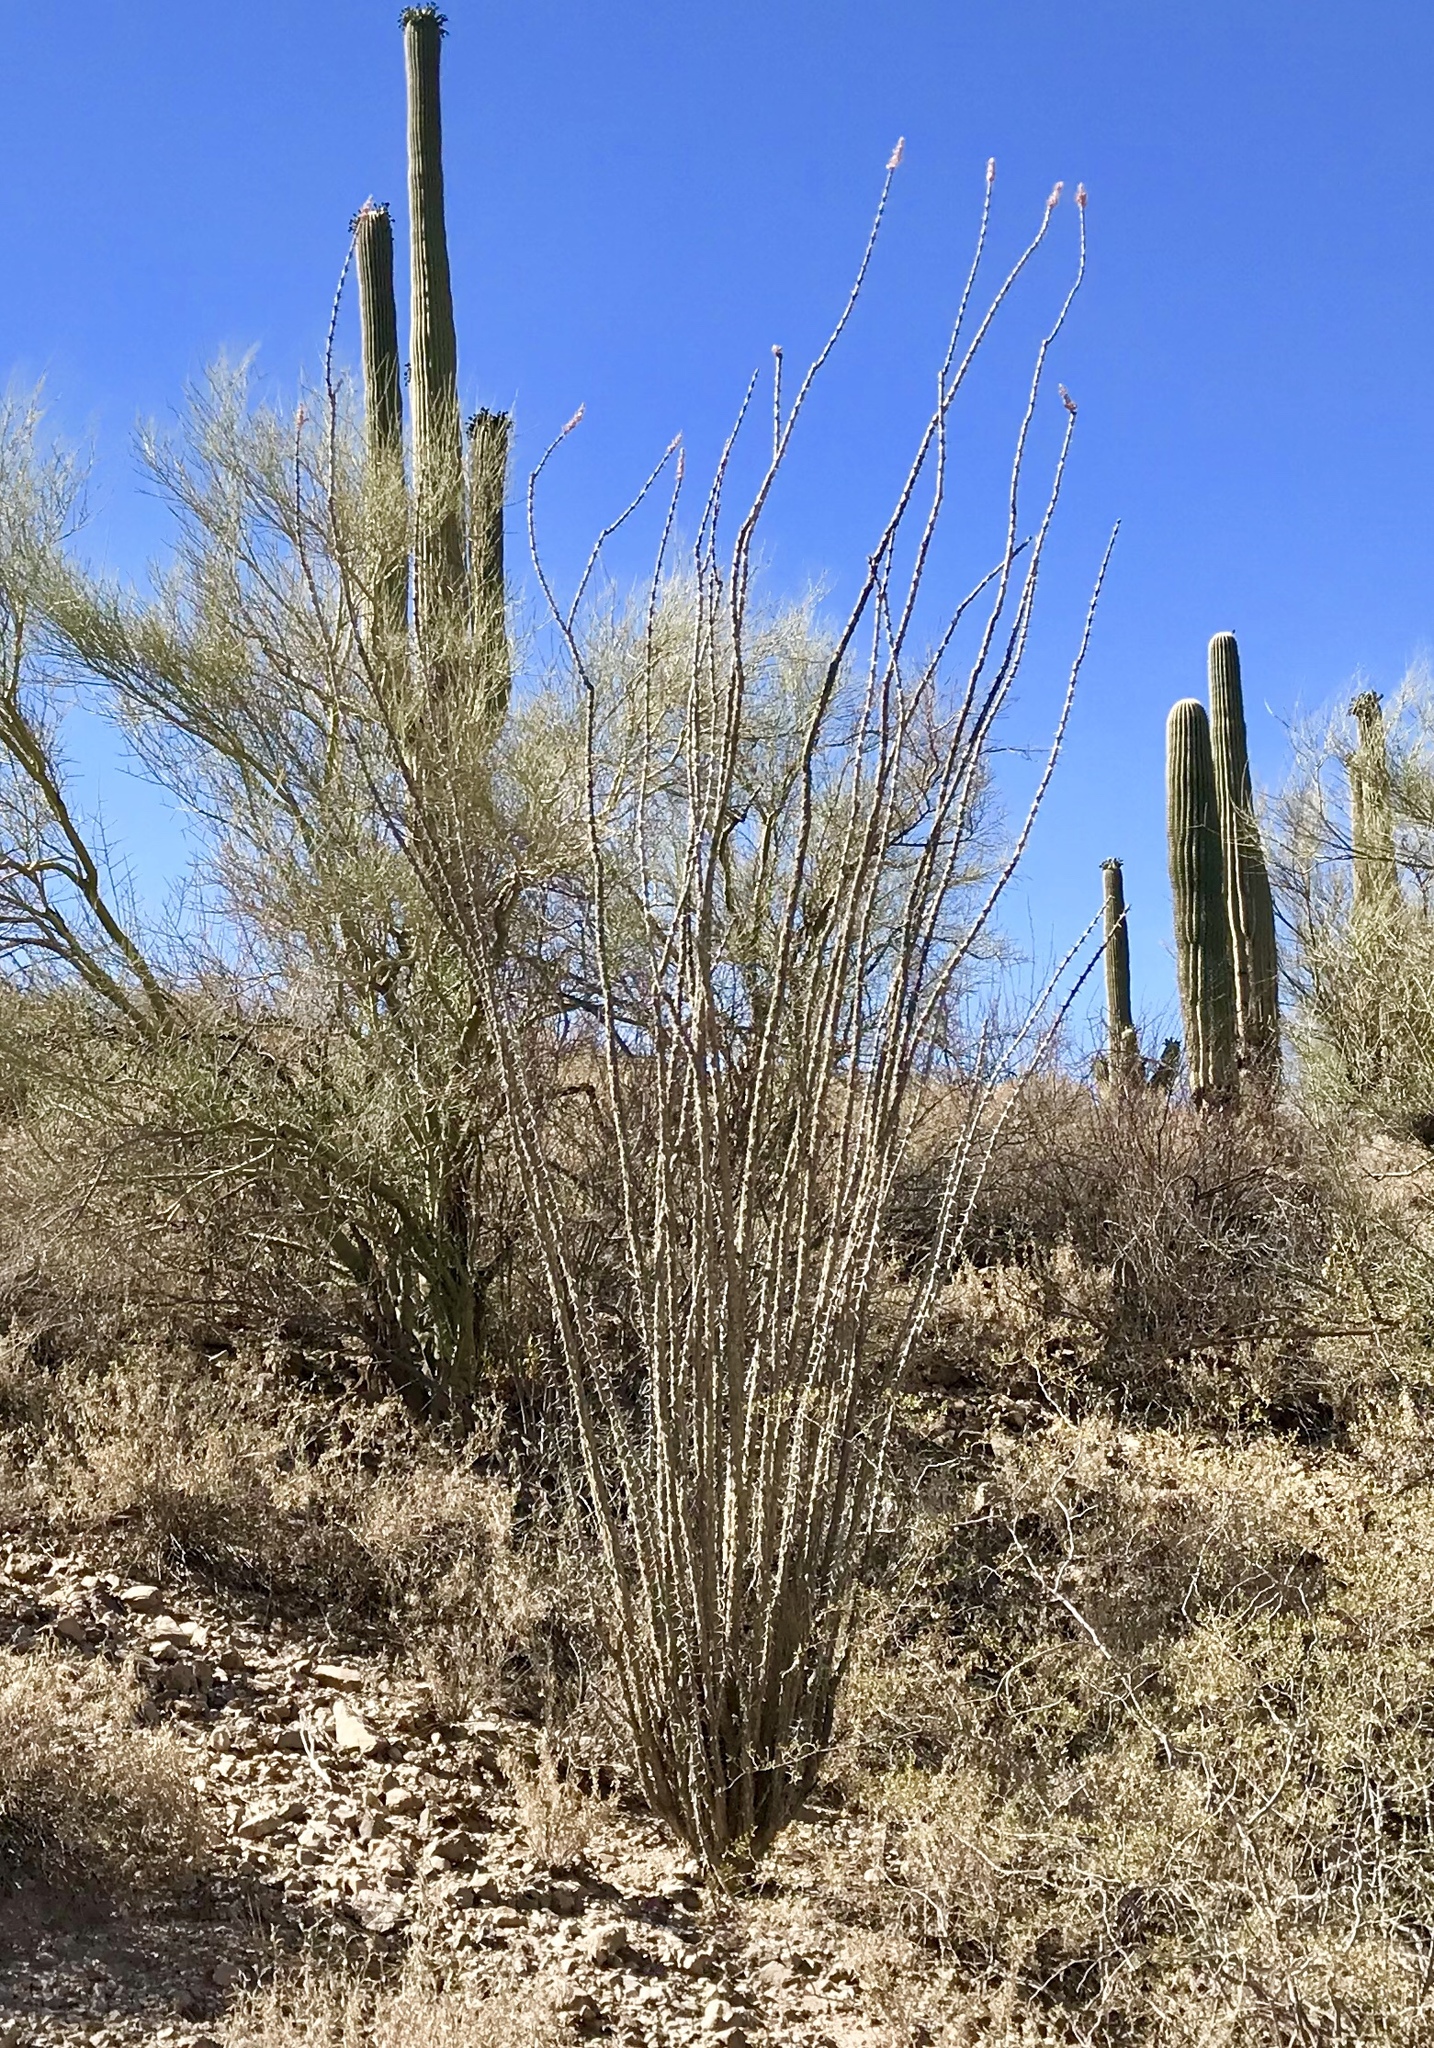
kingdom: Plantae
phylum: Tracheophyta
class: Magnoliopsida
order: Ericales
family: Fouquieriaceae
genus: Fouquieria
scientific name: Fouquieria splendens
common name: Vine-cactus
